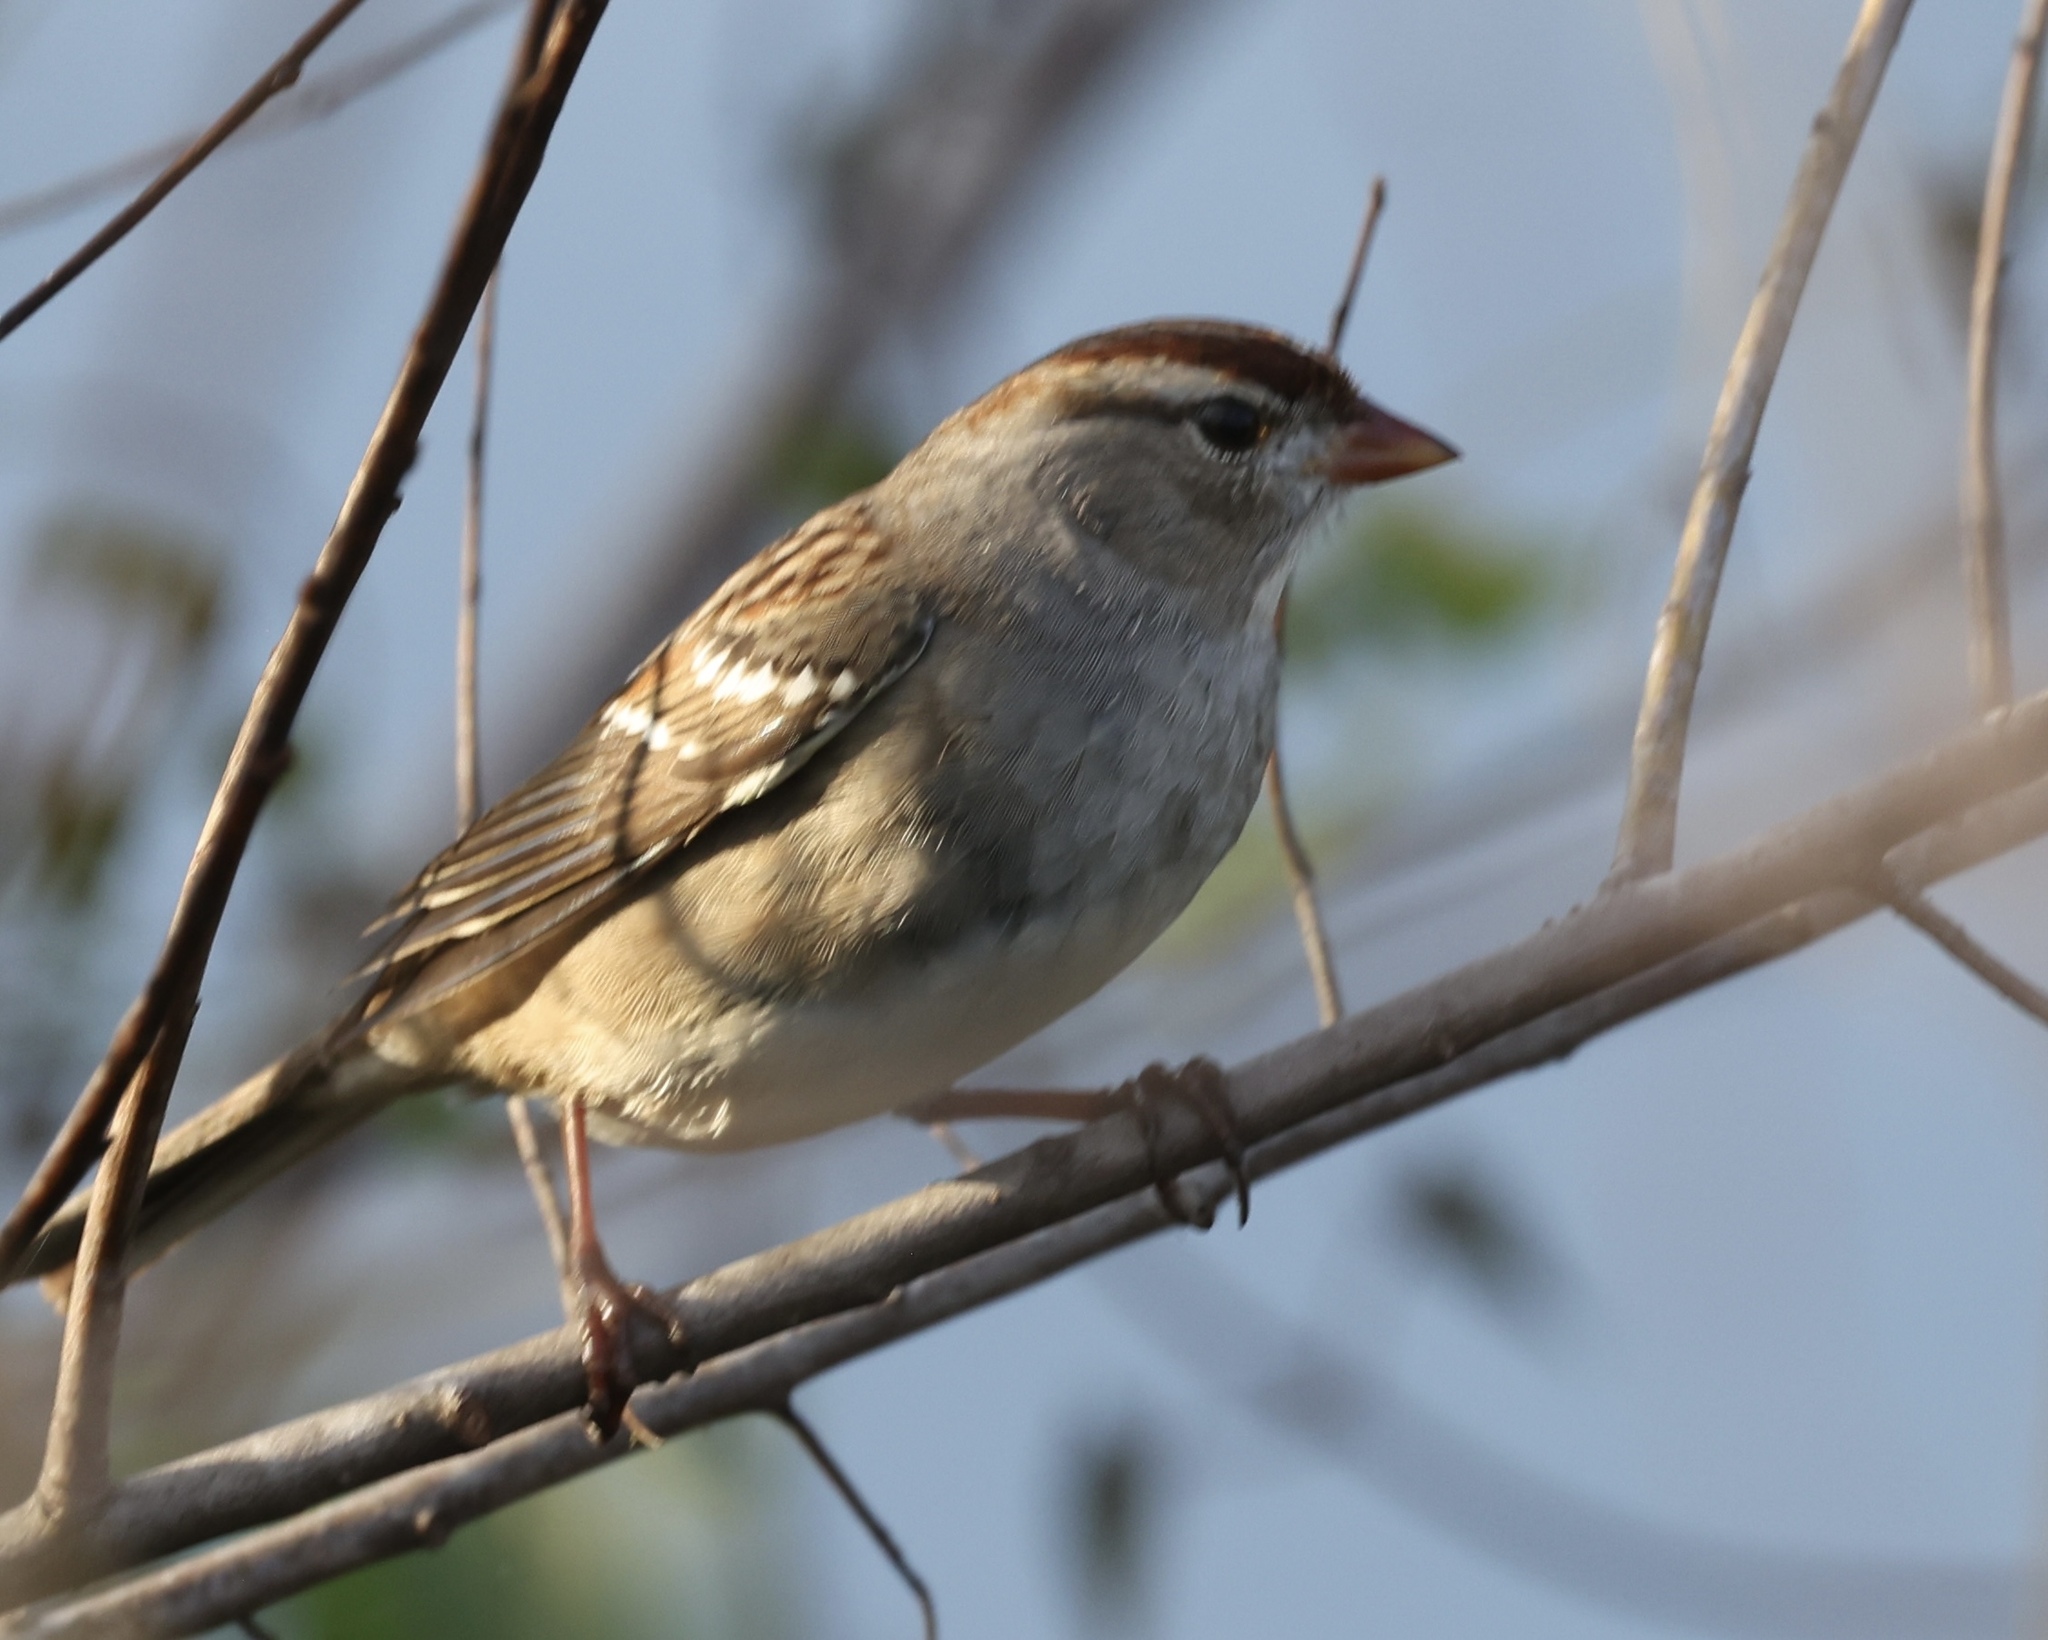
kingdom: Animalia
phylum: Chordata
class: Aves
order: Passeriformes
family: Passerellidae
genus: Zonotrichia
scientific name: Zonotrichia leucophrys
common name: White-crowned sparrow
